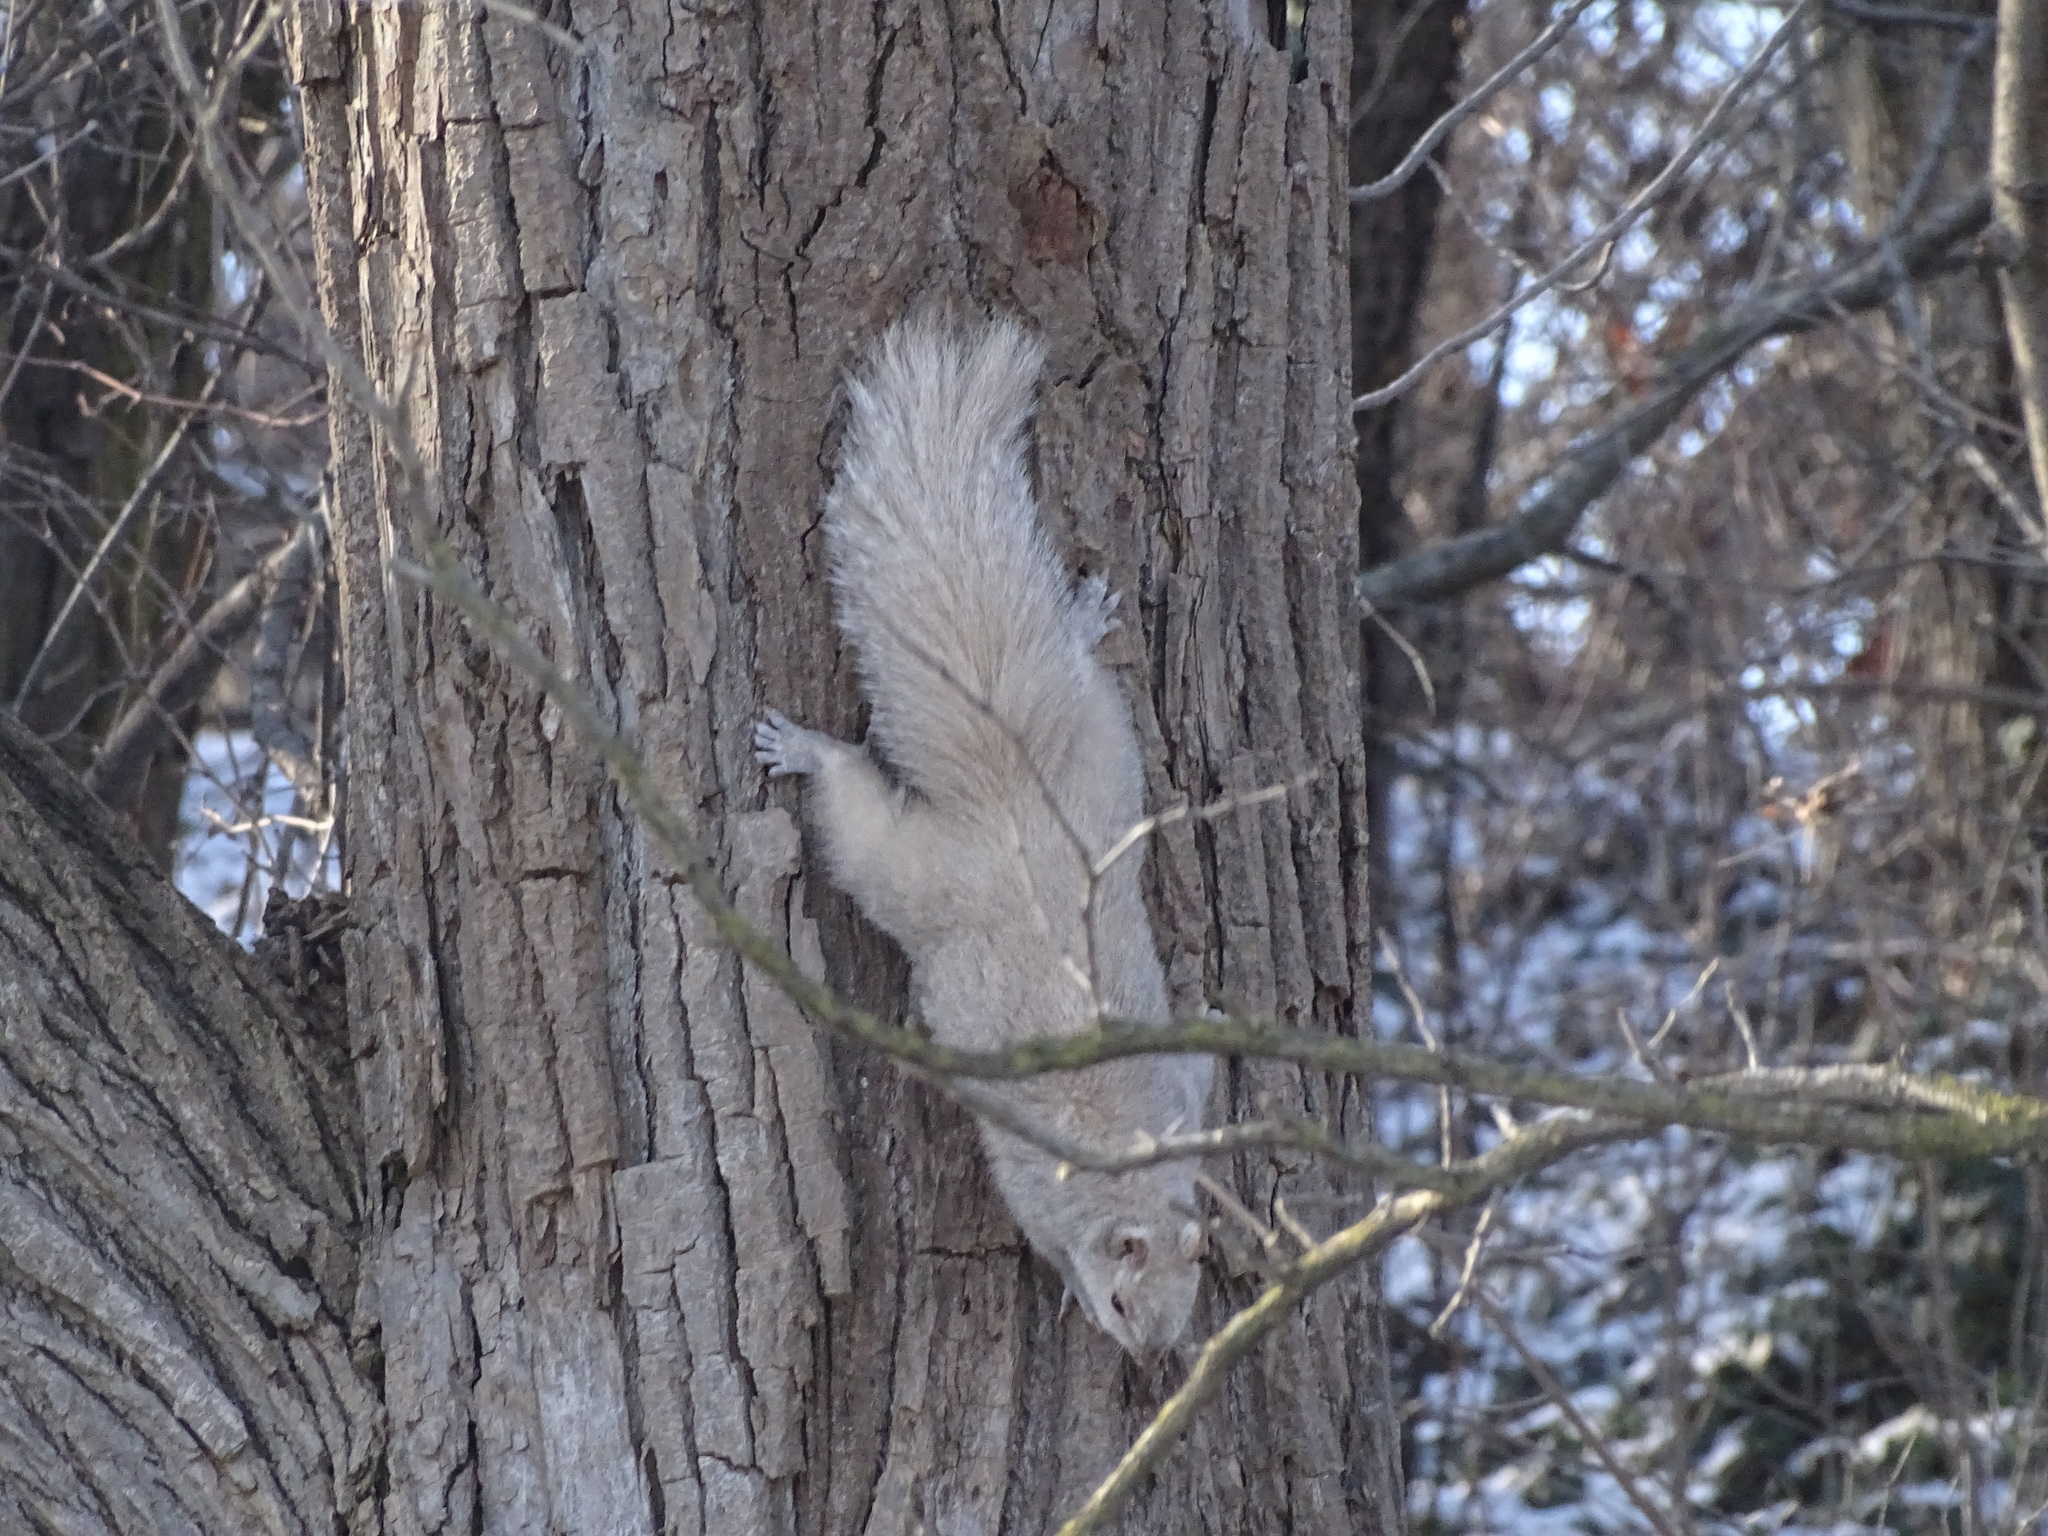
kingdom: Animalia
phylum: Chordata
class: Mammalia
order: Rodentia
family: Sciuridae
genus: Sciurus
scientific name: Sciurus carolinensis
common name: Eastern gray squirrel
